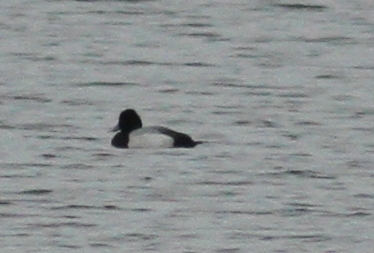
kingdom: Animalia
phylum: Chordata
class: Aves
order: Anseriformes
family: Anatidae
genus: Aythya
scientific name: Aythya affinis
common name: Lesser scaup
